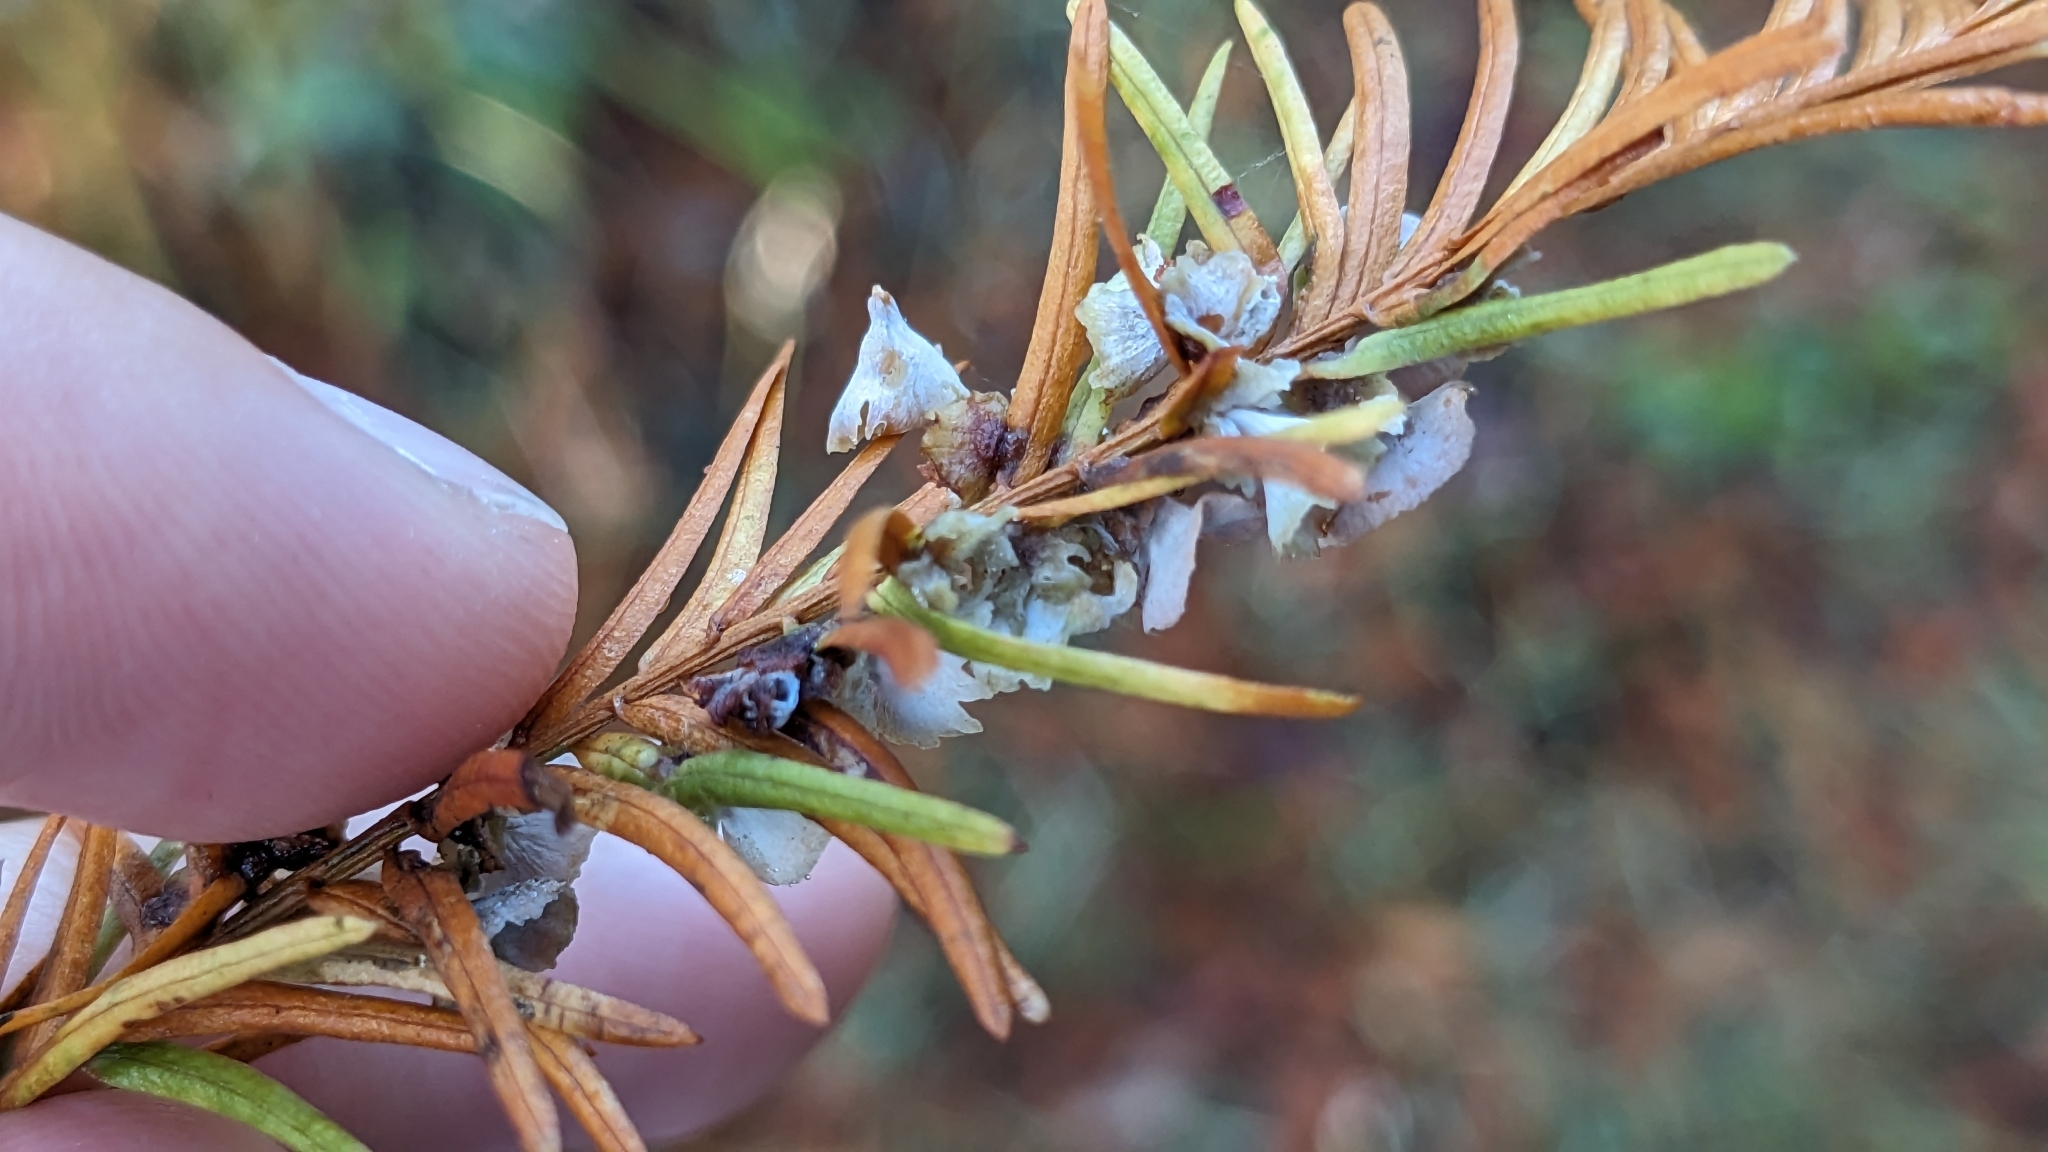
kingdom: Animalia
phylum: Arthropoda
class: Insecta
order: Diptera
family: Cecidomyiidae
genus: Taxodiomyia
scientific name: Taxodiomyia cupressi
